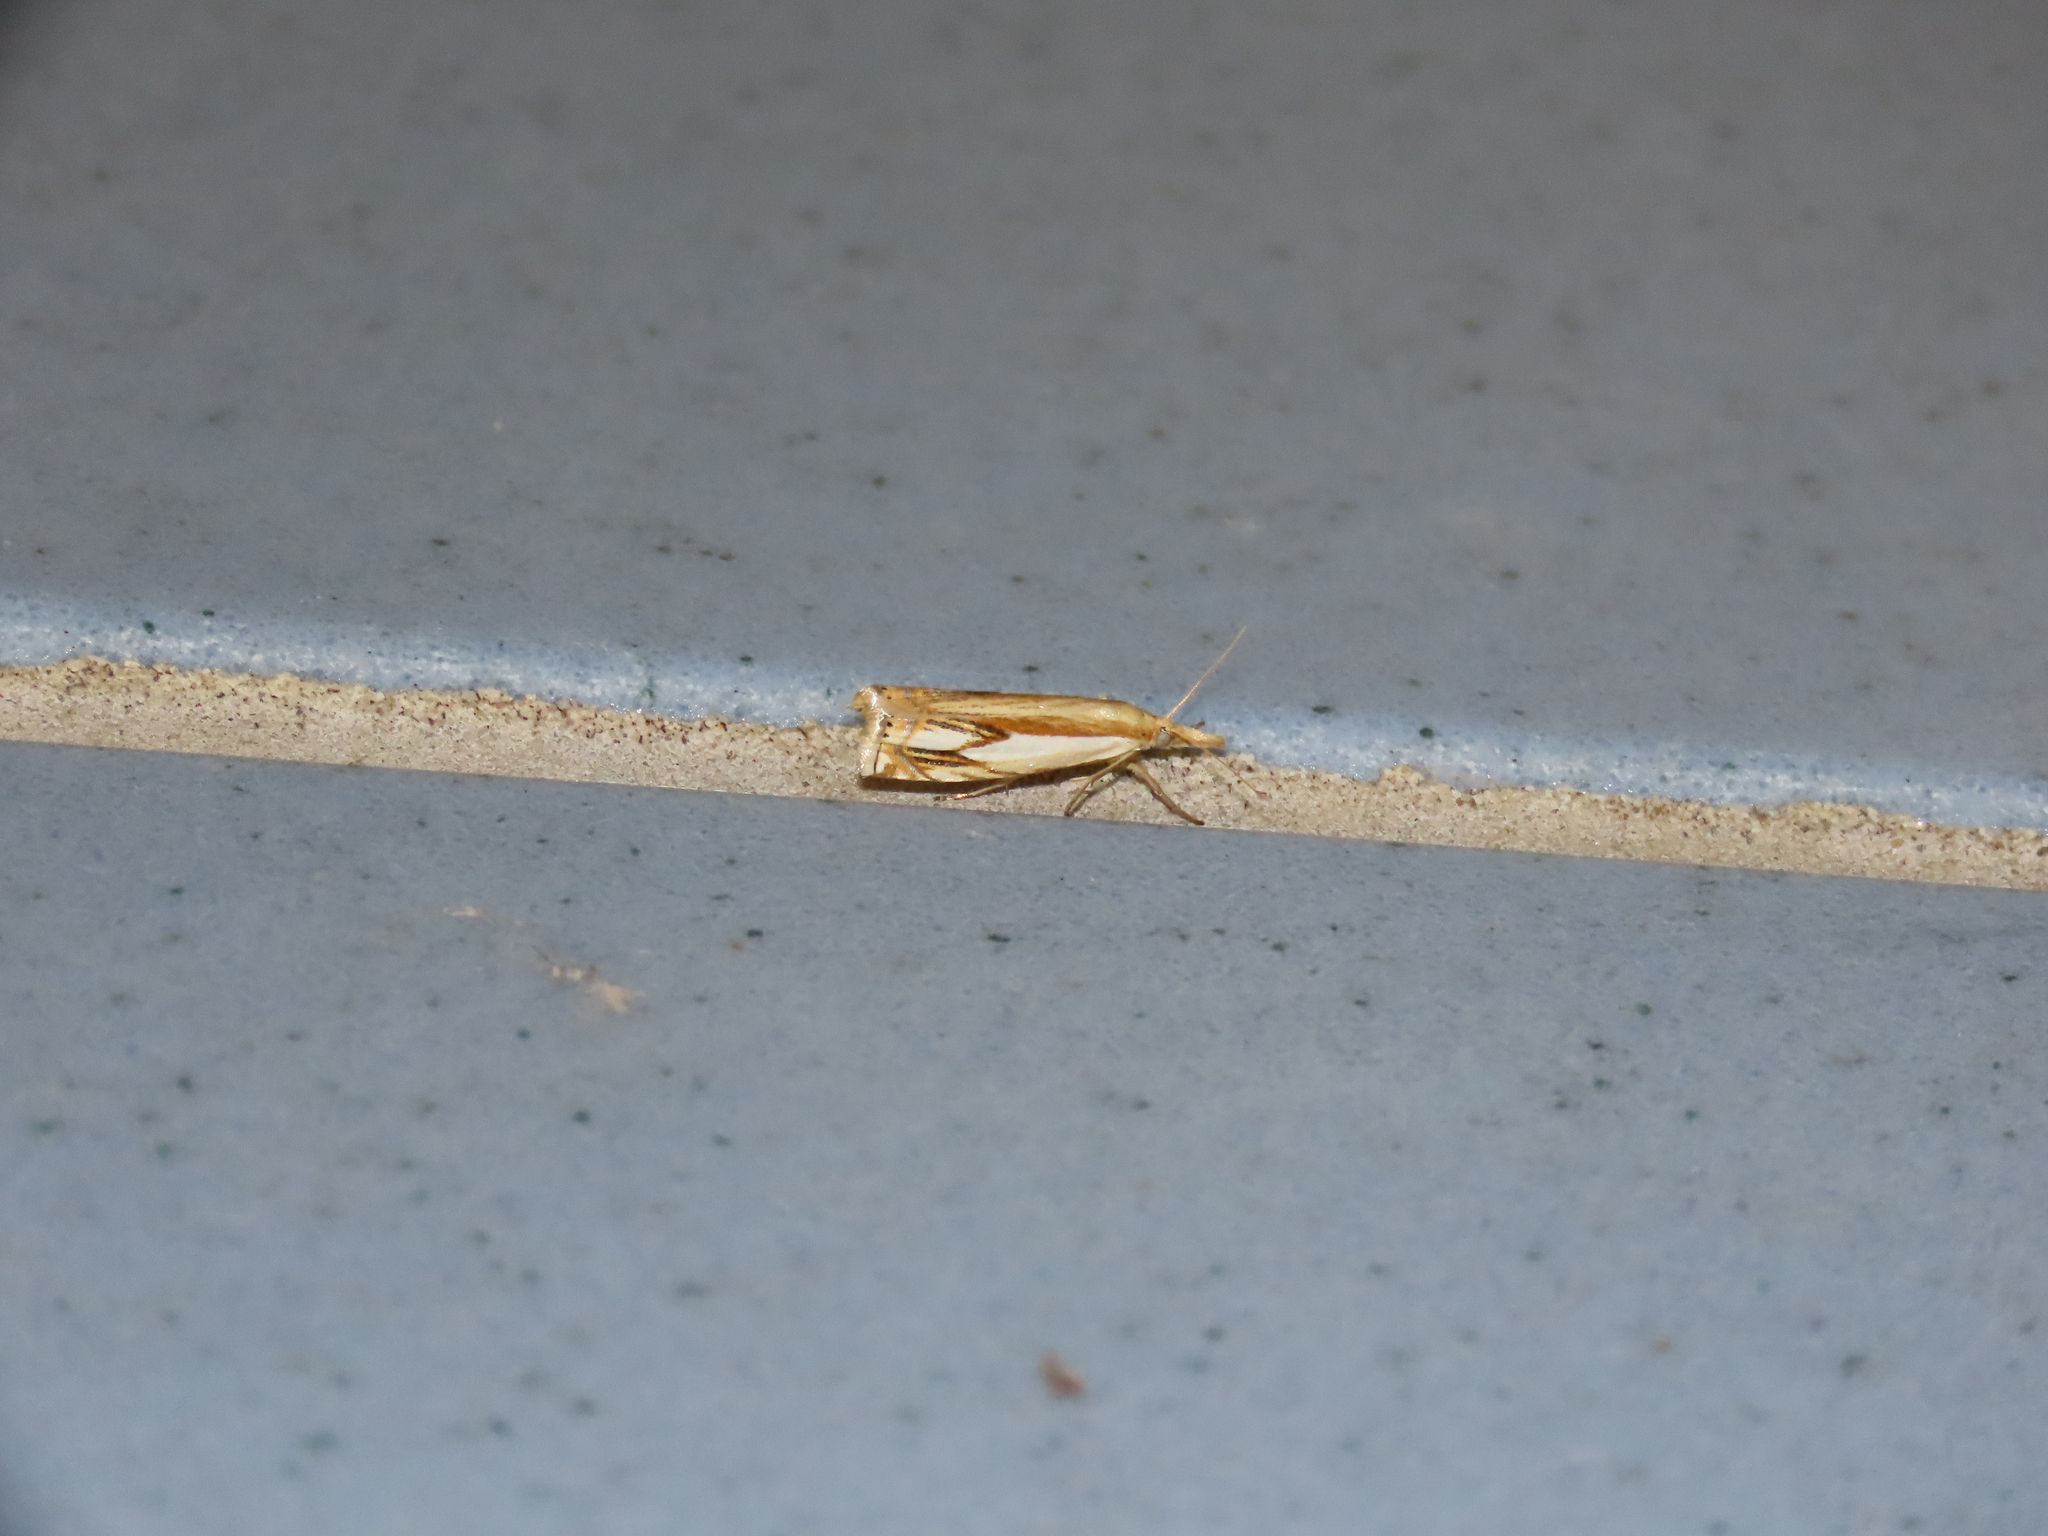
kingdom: Animalia
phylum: Arthropoda
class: Insecta
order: Lepidoptera
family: Crambidae
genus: Crambus
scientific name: Crambus agitatellus
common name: Double-banded grass-veneer
